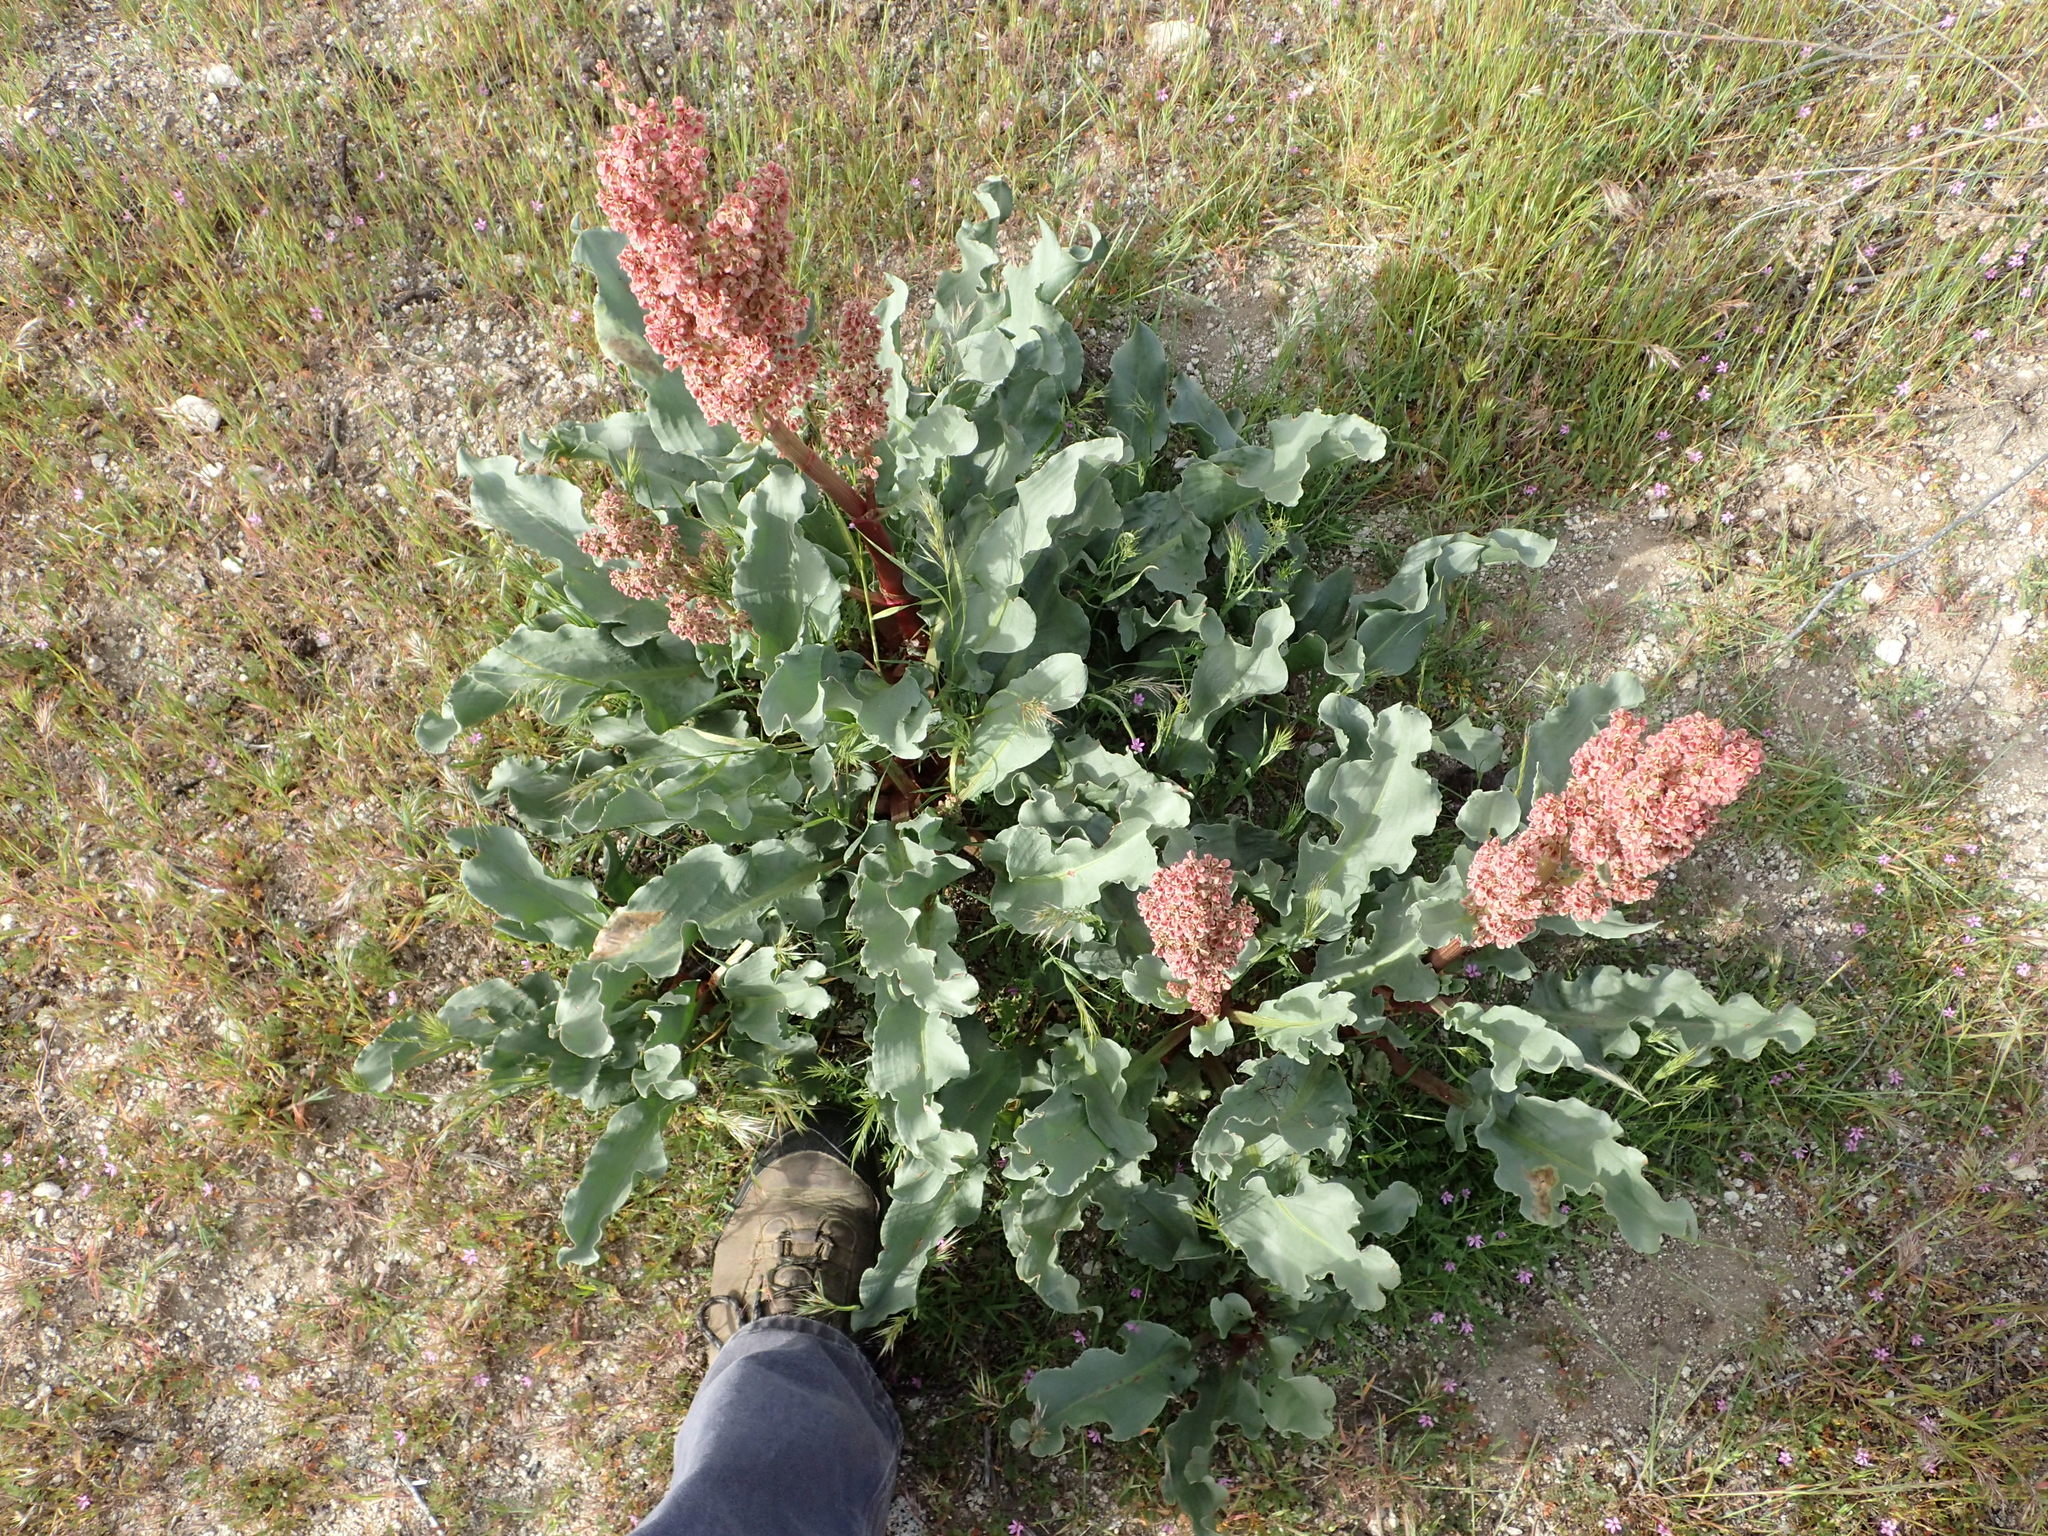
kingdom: Plantae
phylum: Tracheophyta
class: Magnoliopsida
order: Caryophyllales
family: Polygonaceae
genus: Rumex
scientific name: Rumex hymenosepalus
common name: Ganagra
